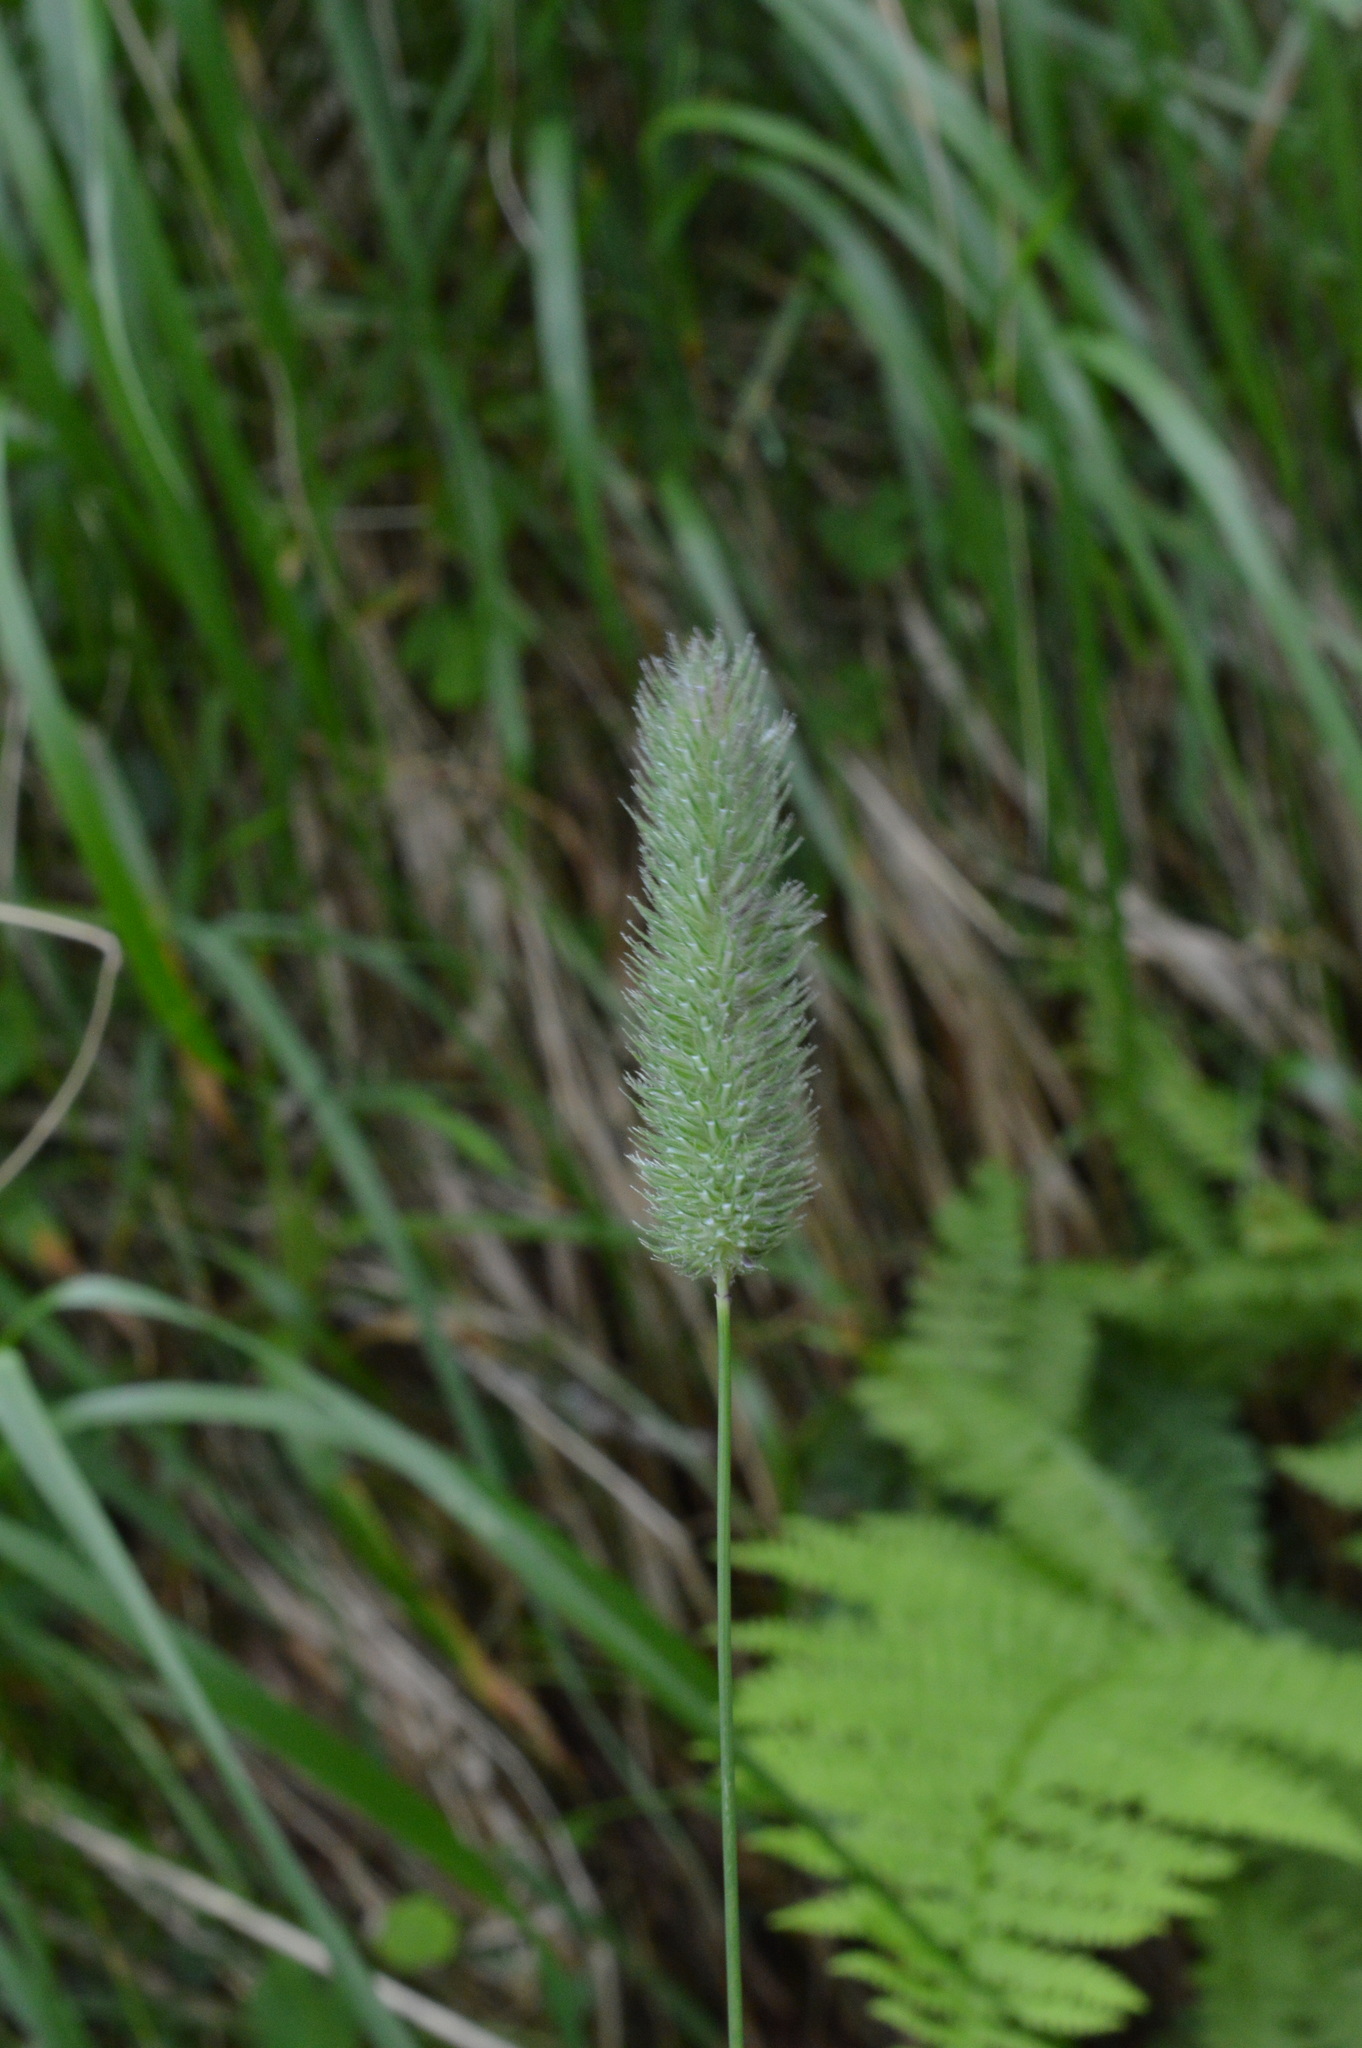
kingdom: Plantae
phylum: Tracheophyta
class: Liliopsida
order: Poales
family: Poaceae
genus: Phleum
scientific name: Phleum pratense
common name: Timothy grass
